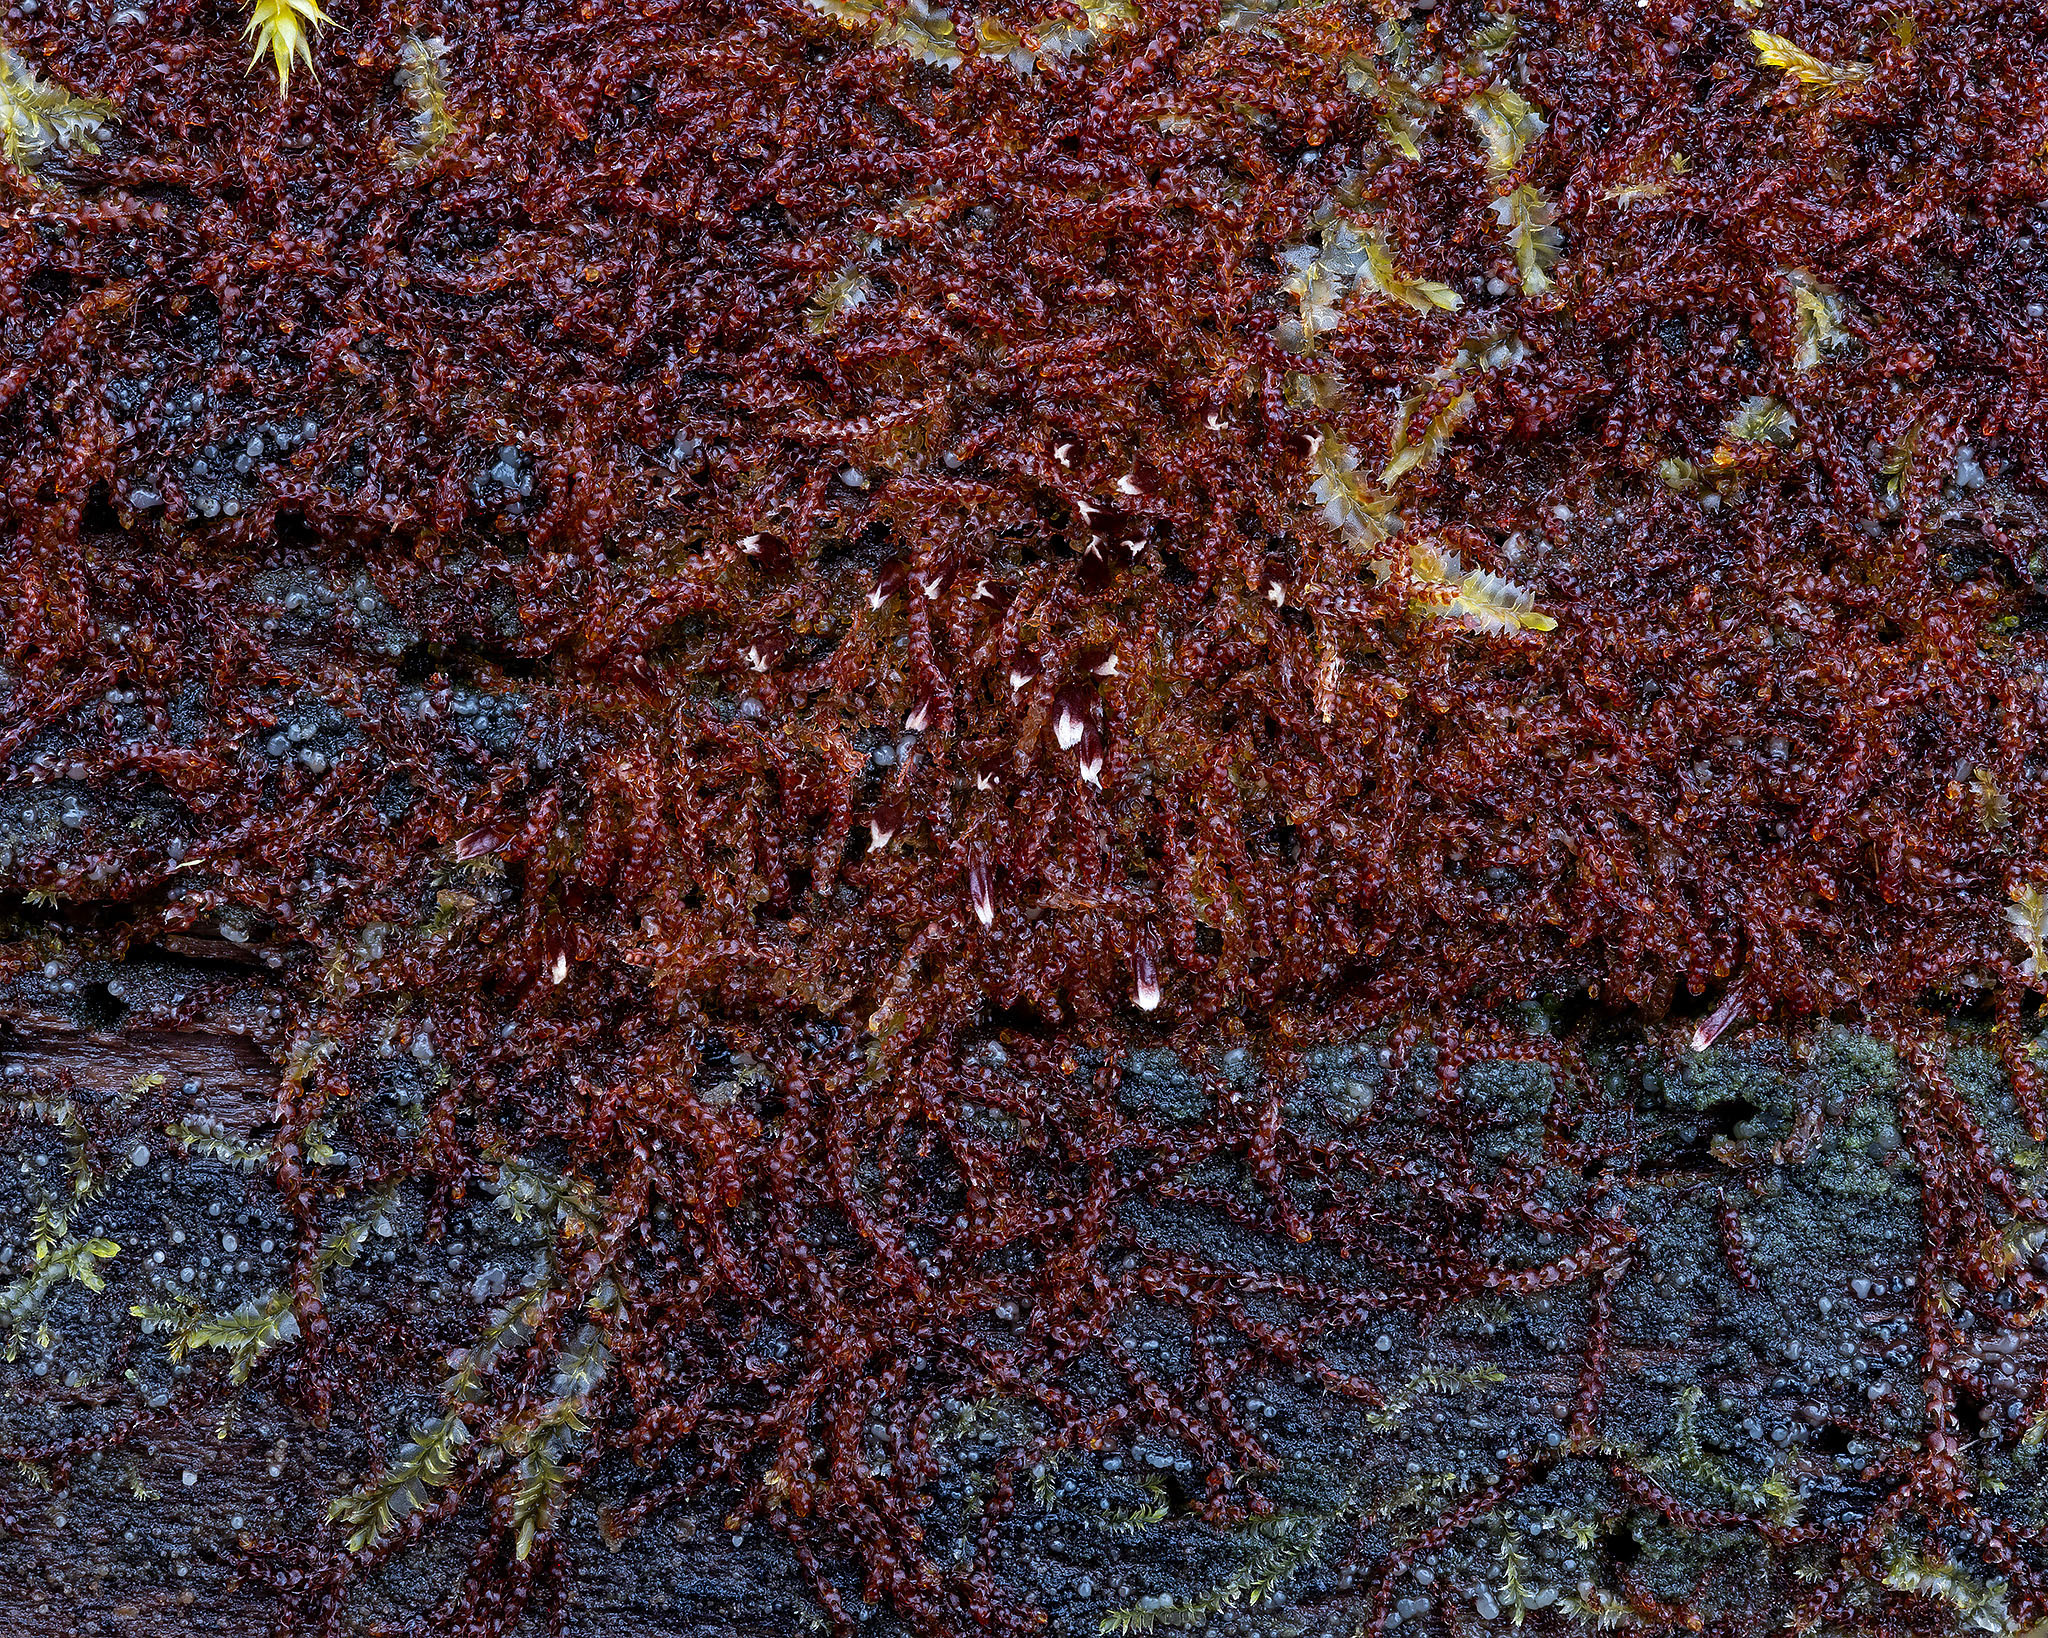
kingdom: Plantae
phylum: Marchantiophyta
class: Jungermanniopsida
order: Jungermanniales
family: Cephaloziaceae
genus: Nowellia
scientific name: Nowellia curvifolia
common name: Wood rustwort
